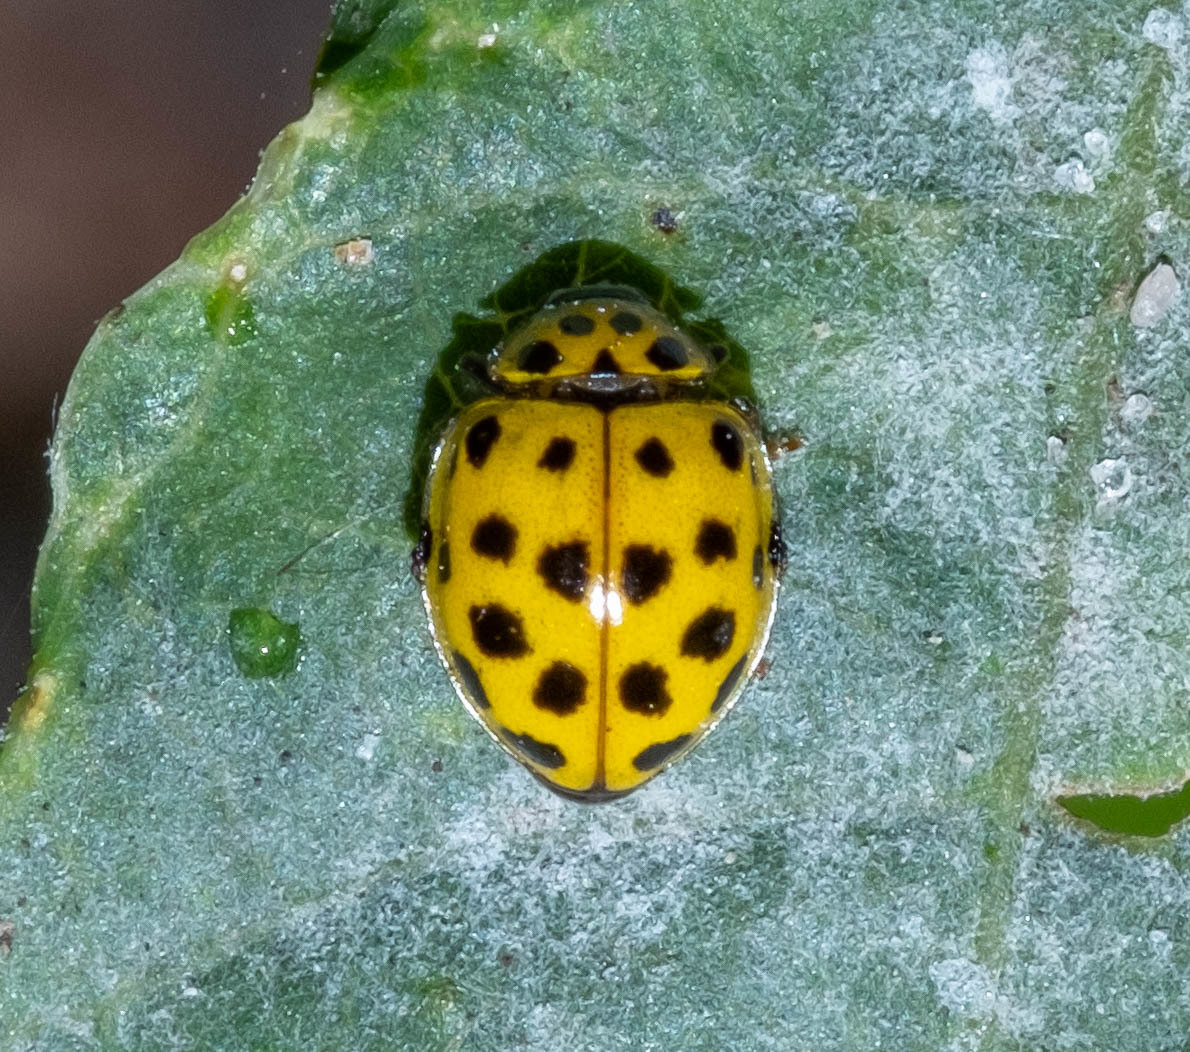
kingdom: Animalia
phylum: Arthropoda
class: Insecta
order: Coleoptera
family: Coccinellidae
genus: Psyllobora
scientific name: Psyllobora vigintiduopunctata
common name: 22-spot ladybird
